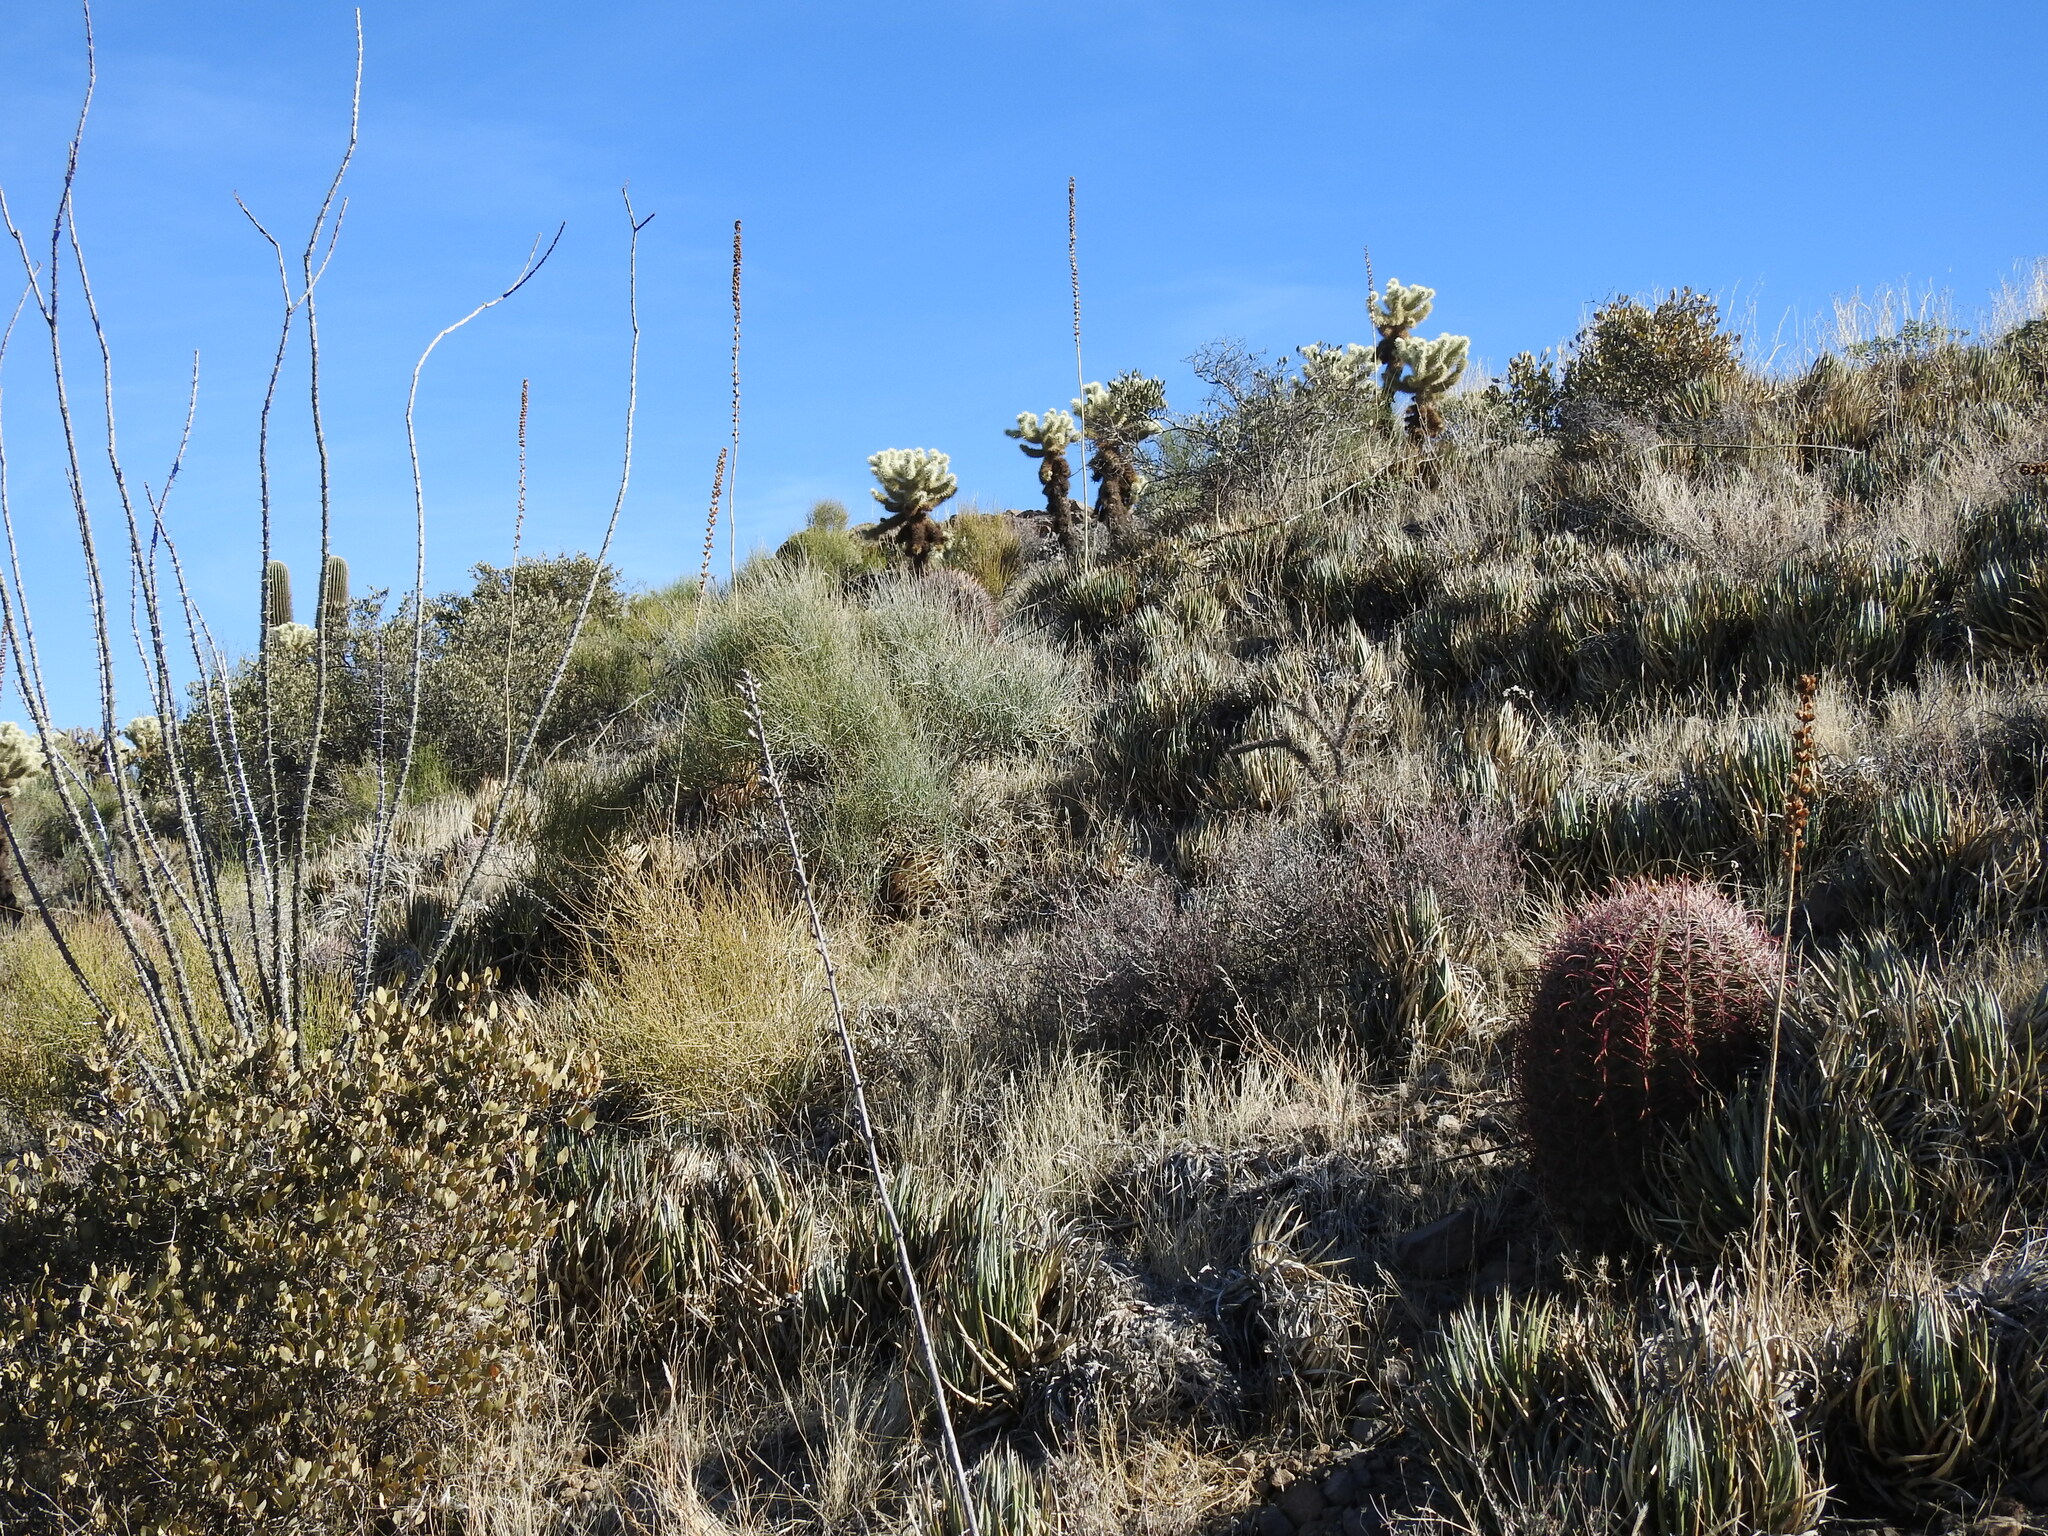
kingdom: Plantae
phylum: Tracheophyta
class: Liliopsida
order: Asparagales
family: Asparagaceae
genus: Agave
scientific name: Agave toumeyana
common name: Toumey's agave
